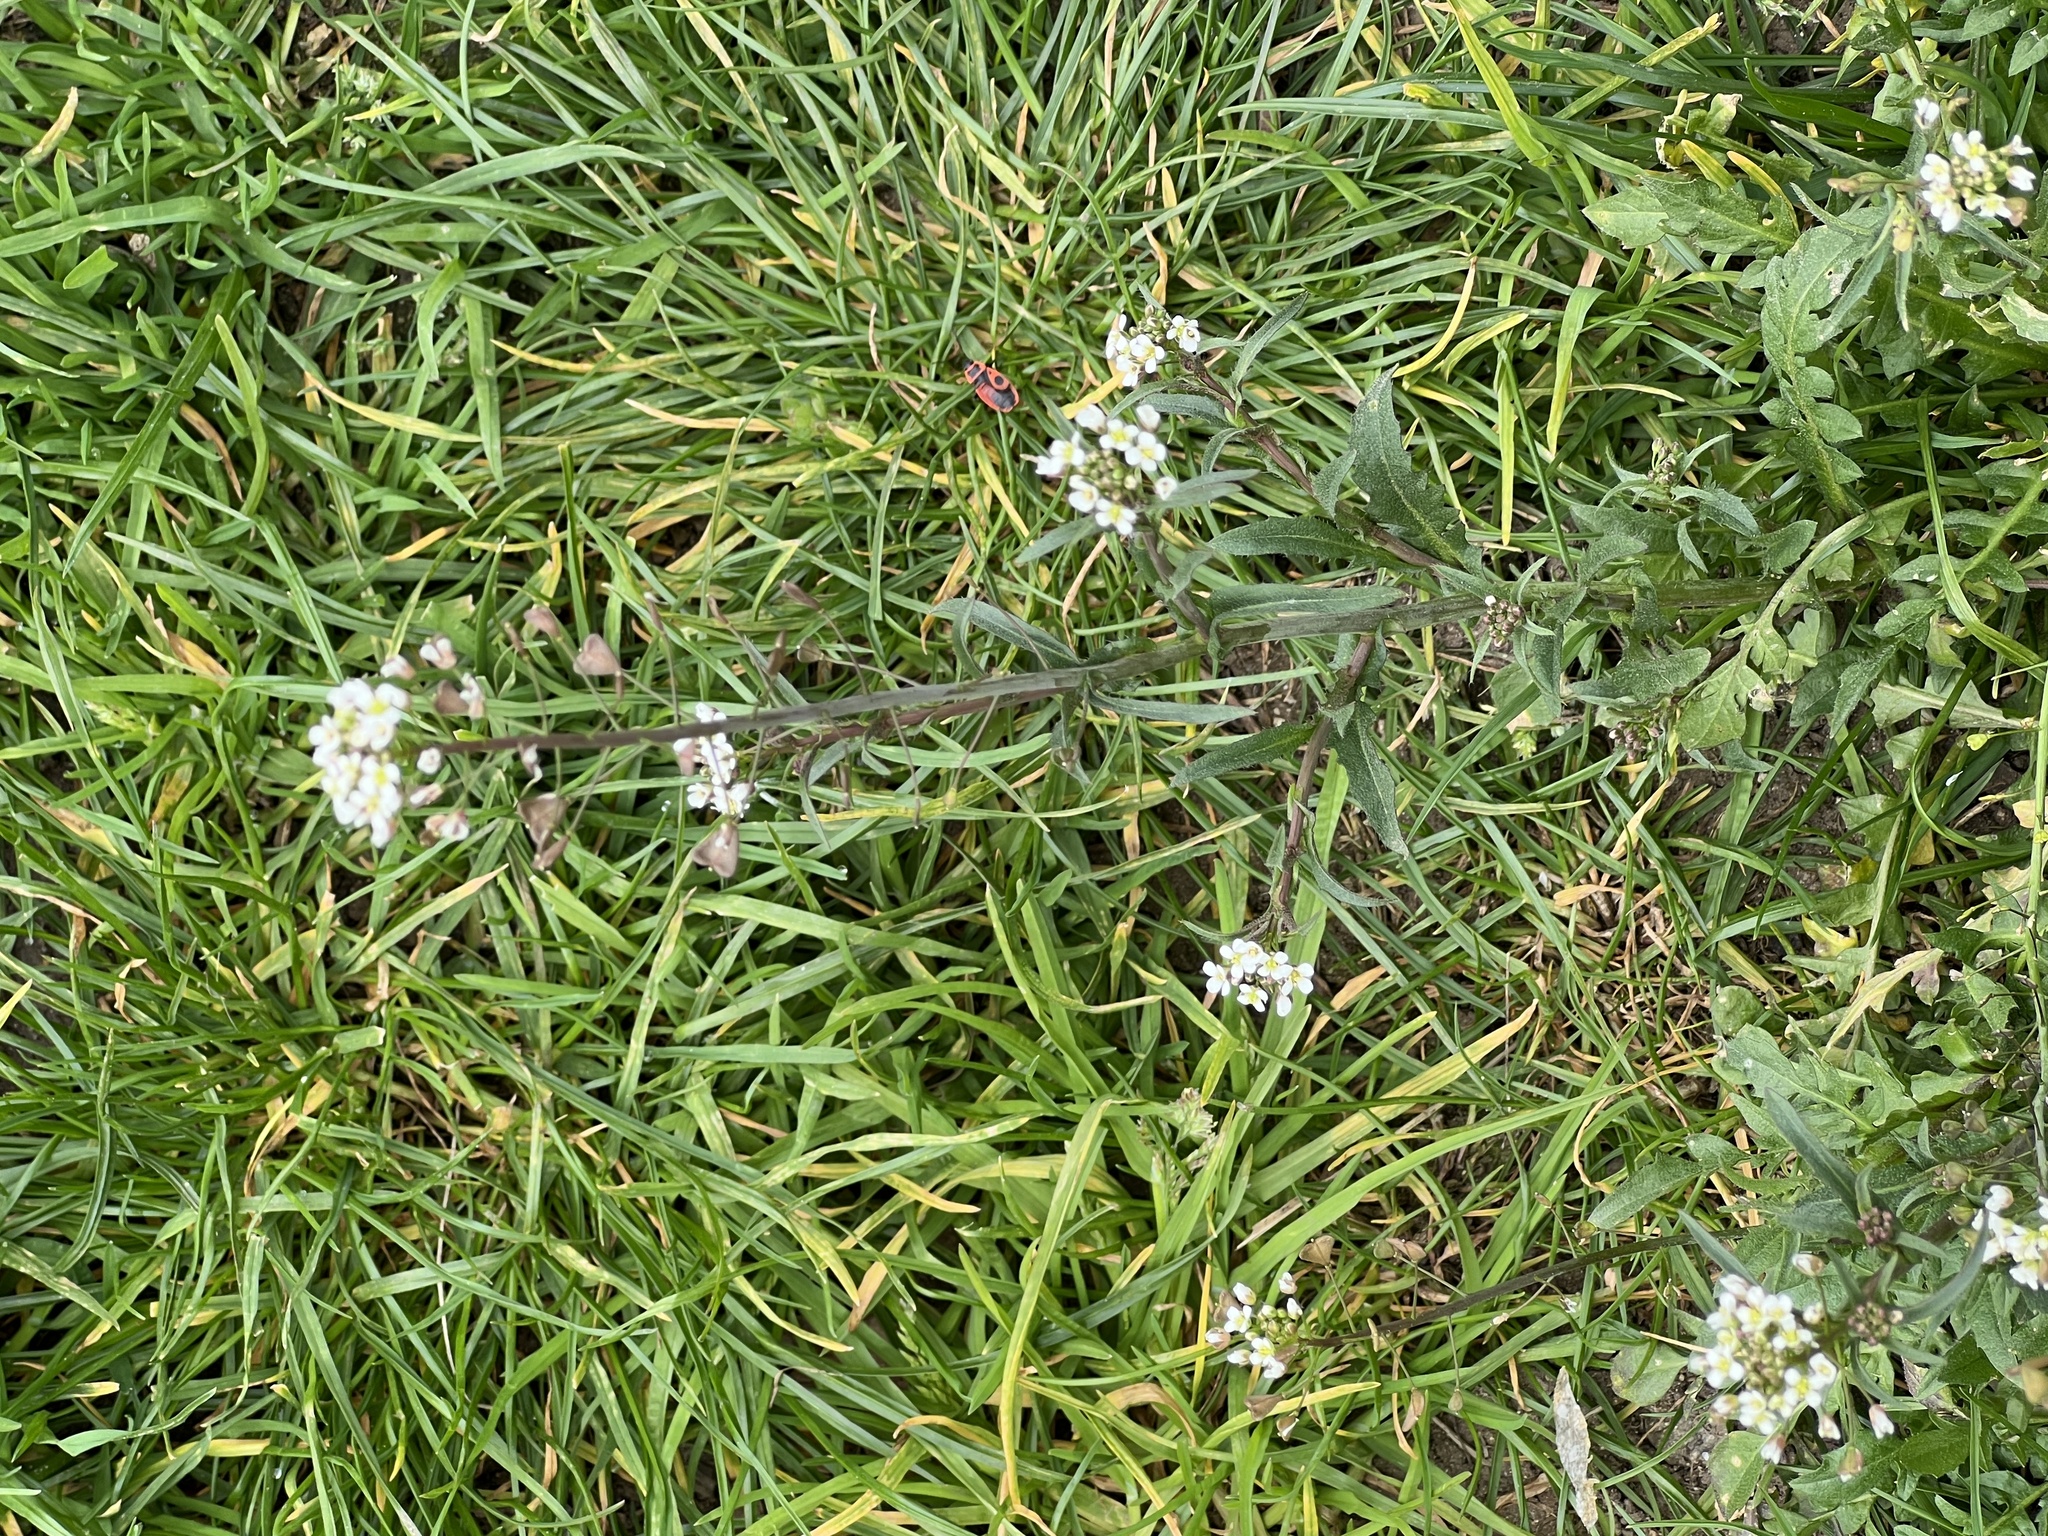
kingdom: Plantae
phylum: Tracheophyta
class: Magnoliopsida
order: Brassicales
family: Brassicaceae
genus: Capsella
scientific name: Capsella bursa-pastoris
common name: Shepherd's purse
